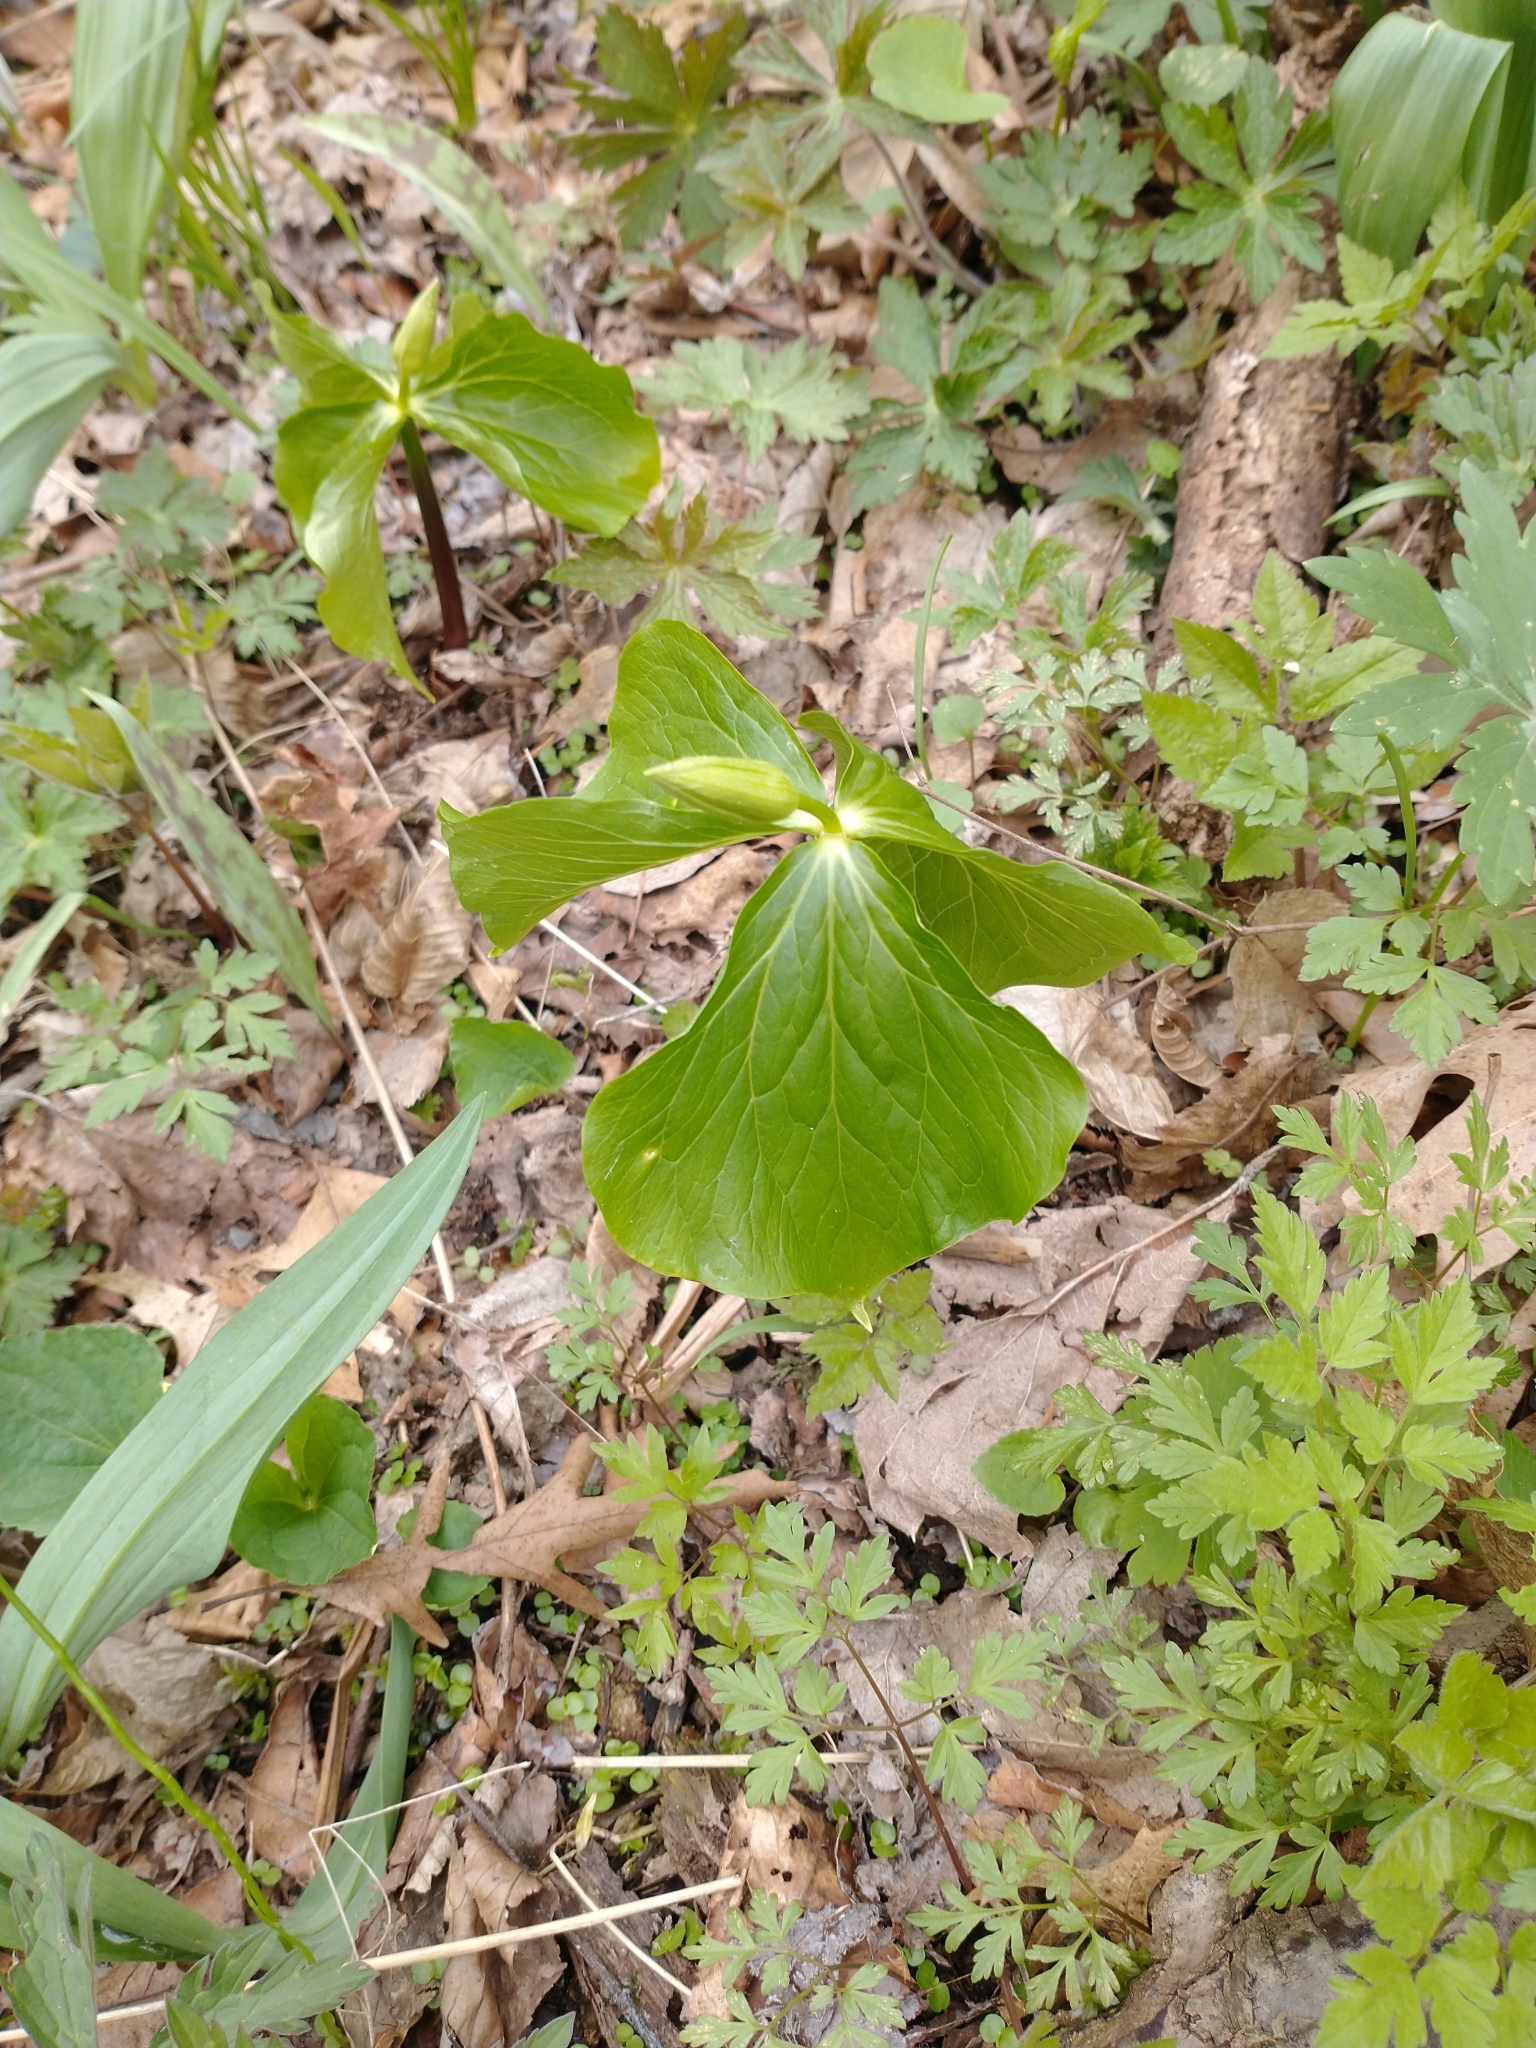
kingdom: Plantae
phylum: Tracheophyta
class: Liliopsida
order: Liliales
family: Melanthiaceae
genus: Trillium
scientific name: Trillium flexipes
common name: Drooping trillium
